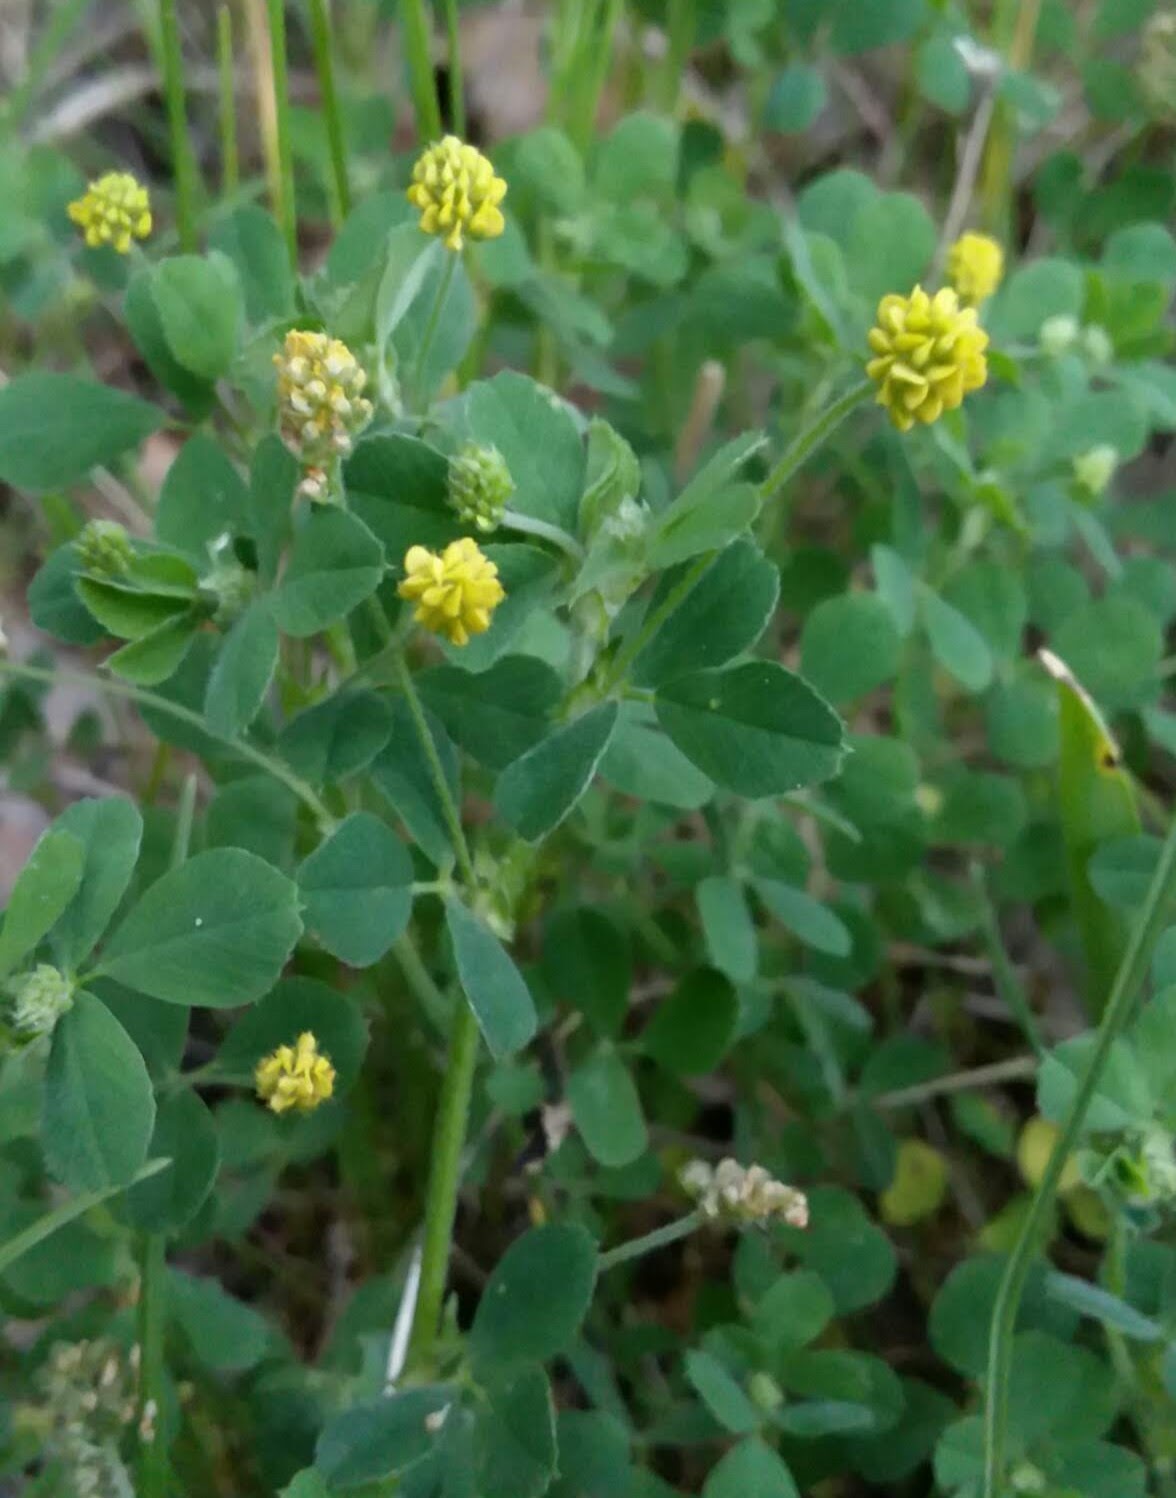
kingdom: Plantae
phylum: Tracheophyta
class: Magnoliopsida
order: Fabales
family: Fabaceae
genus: Medicago
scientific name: Medicago lupulina
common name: Black medick
